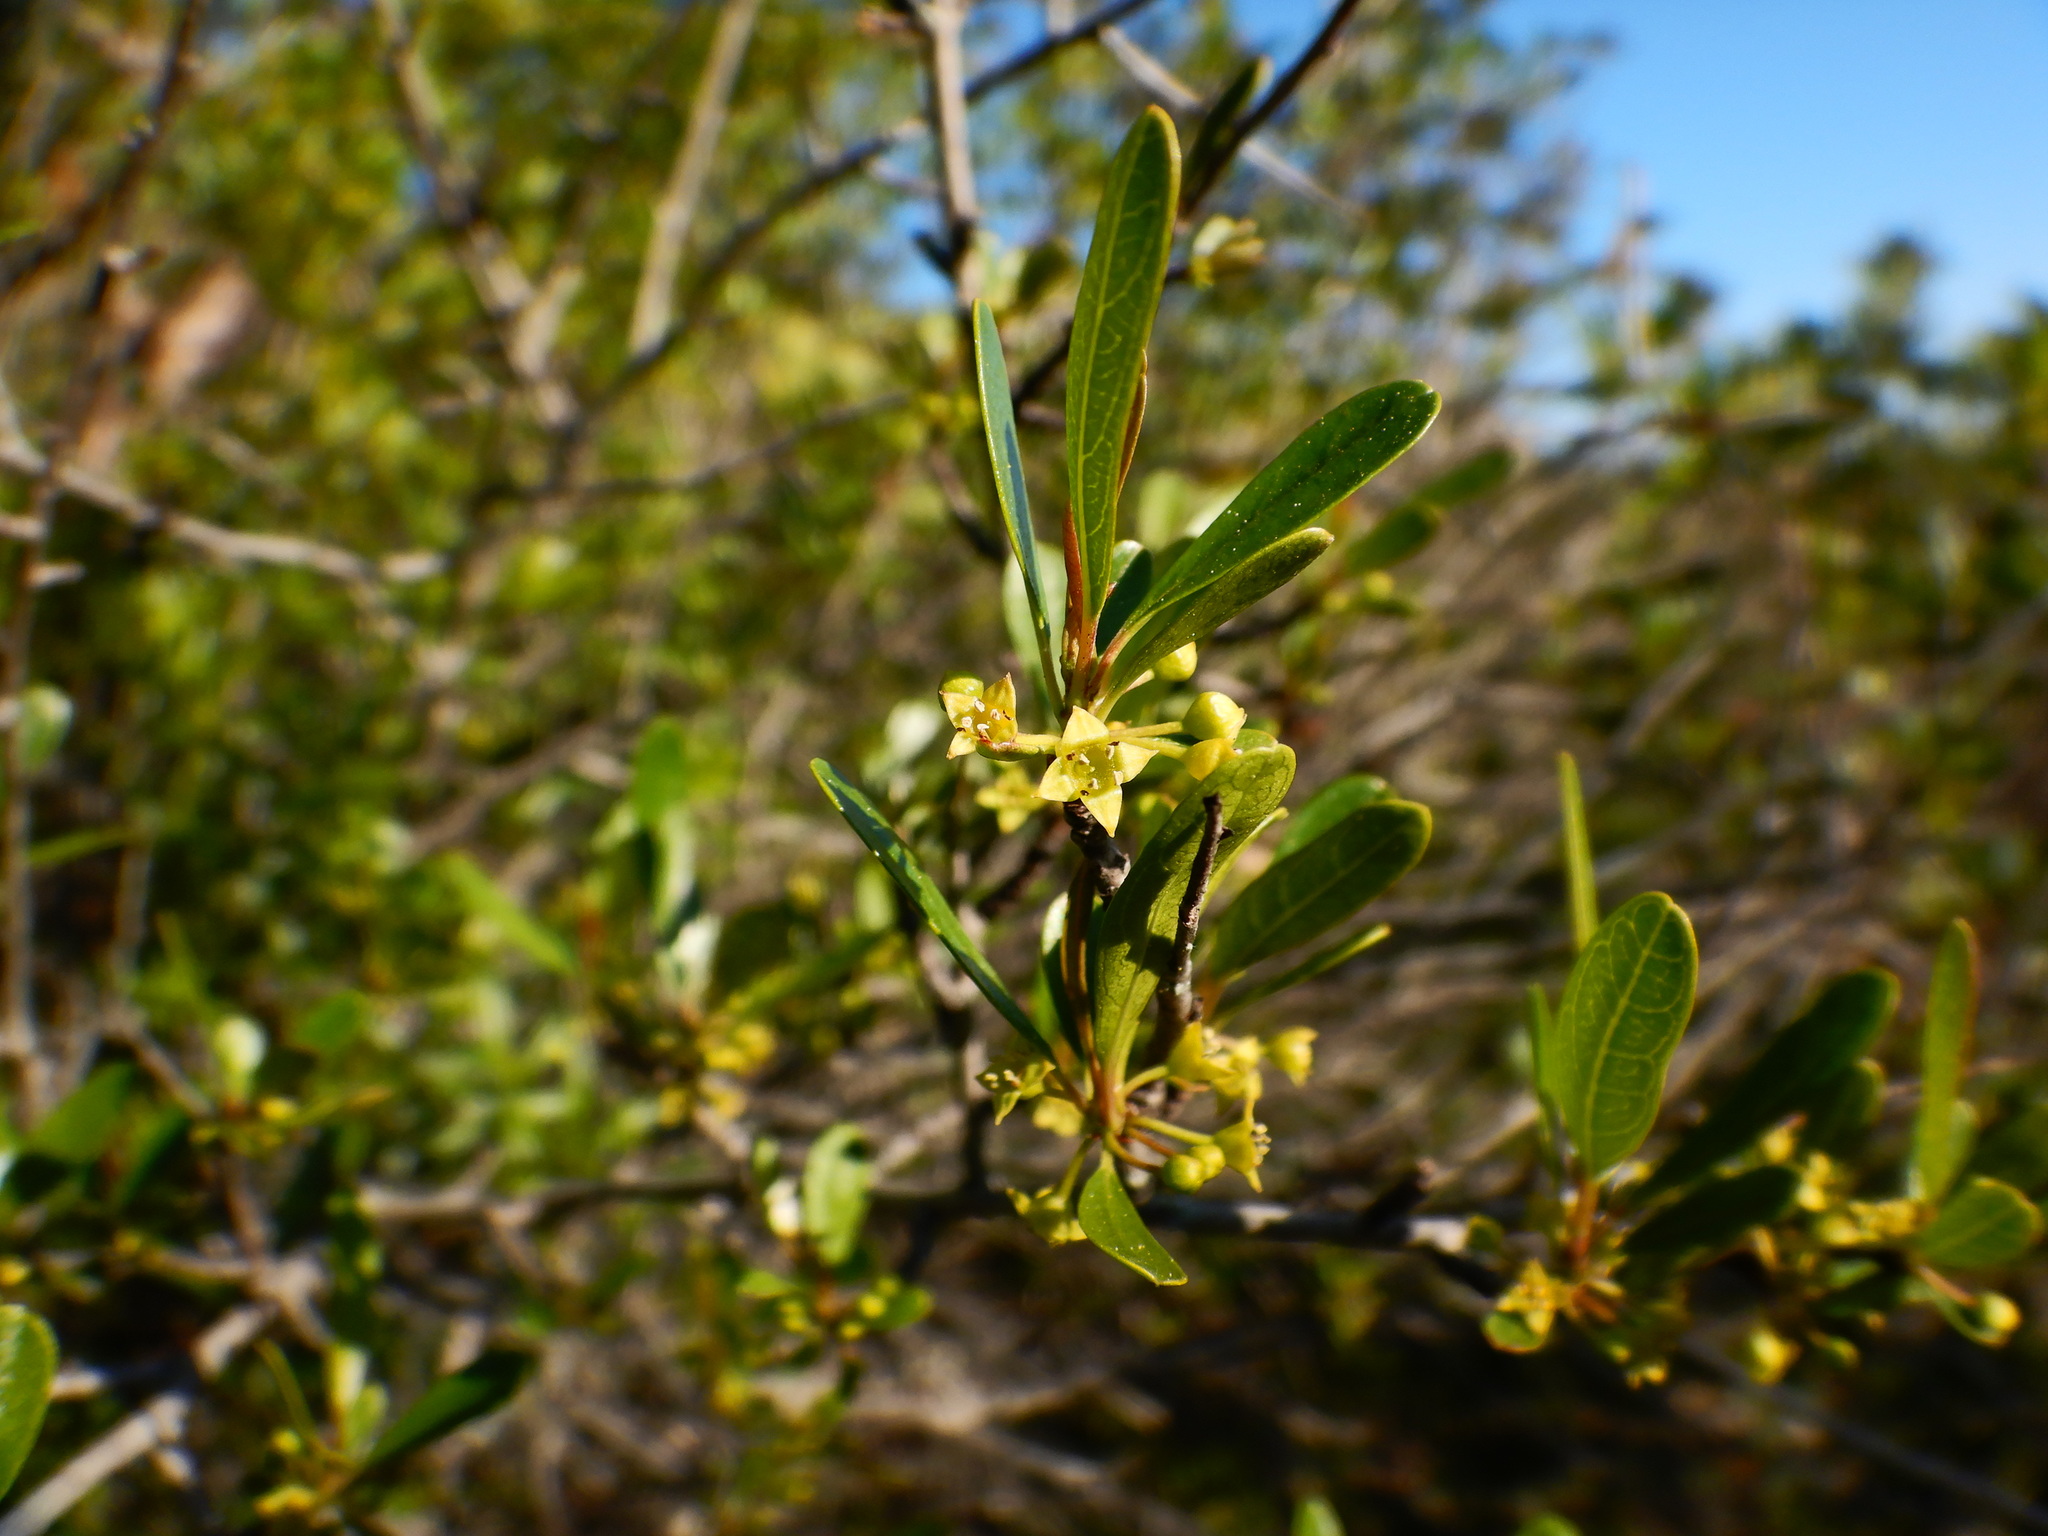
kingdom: Plantae
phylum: Tracheophyta
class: Magnoliopsida
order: Rosales
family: Rhamnaceae
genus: Rhamnus
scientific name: Rhamnus oleoides
